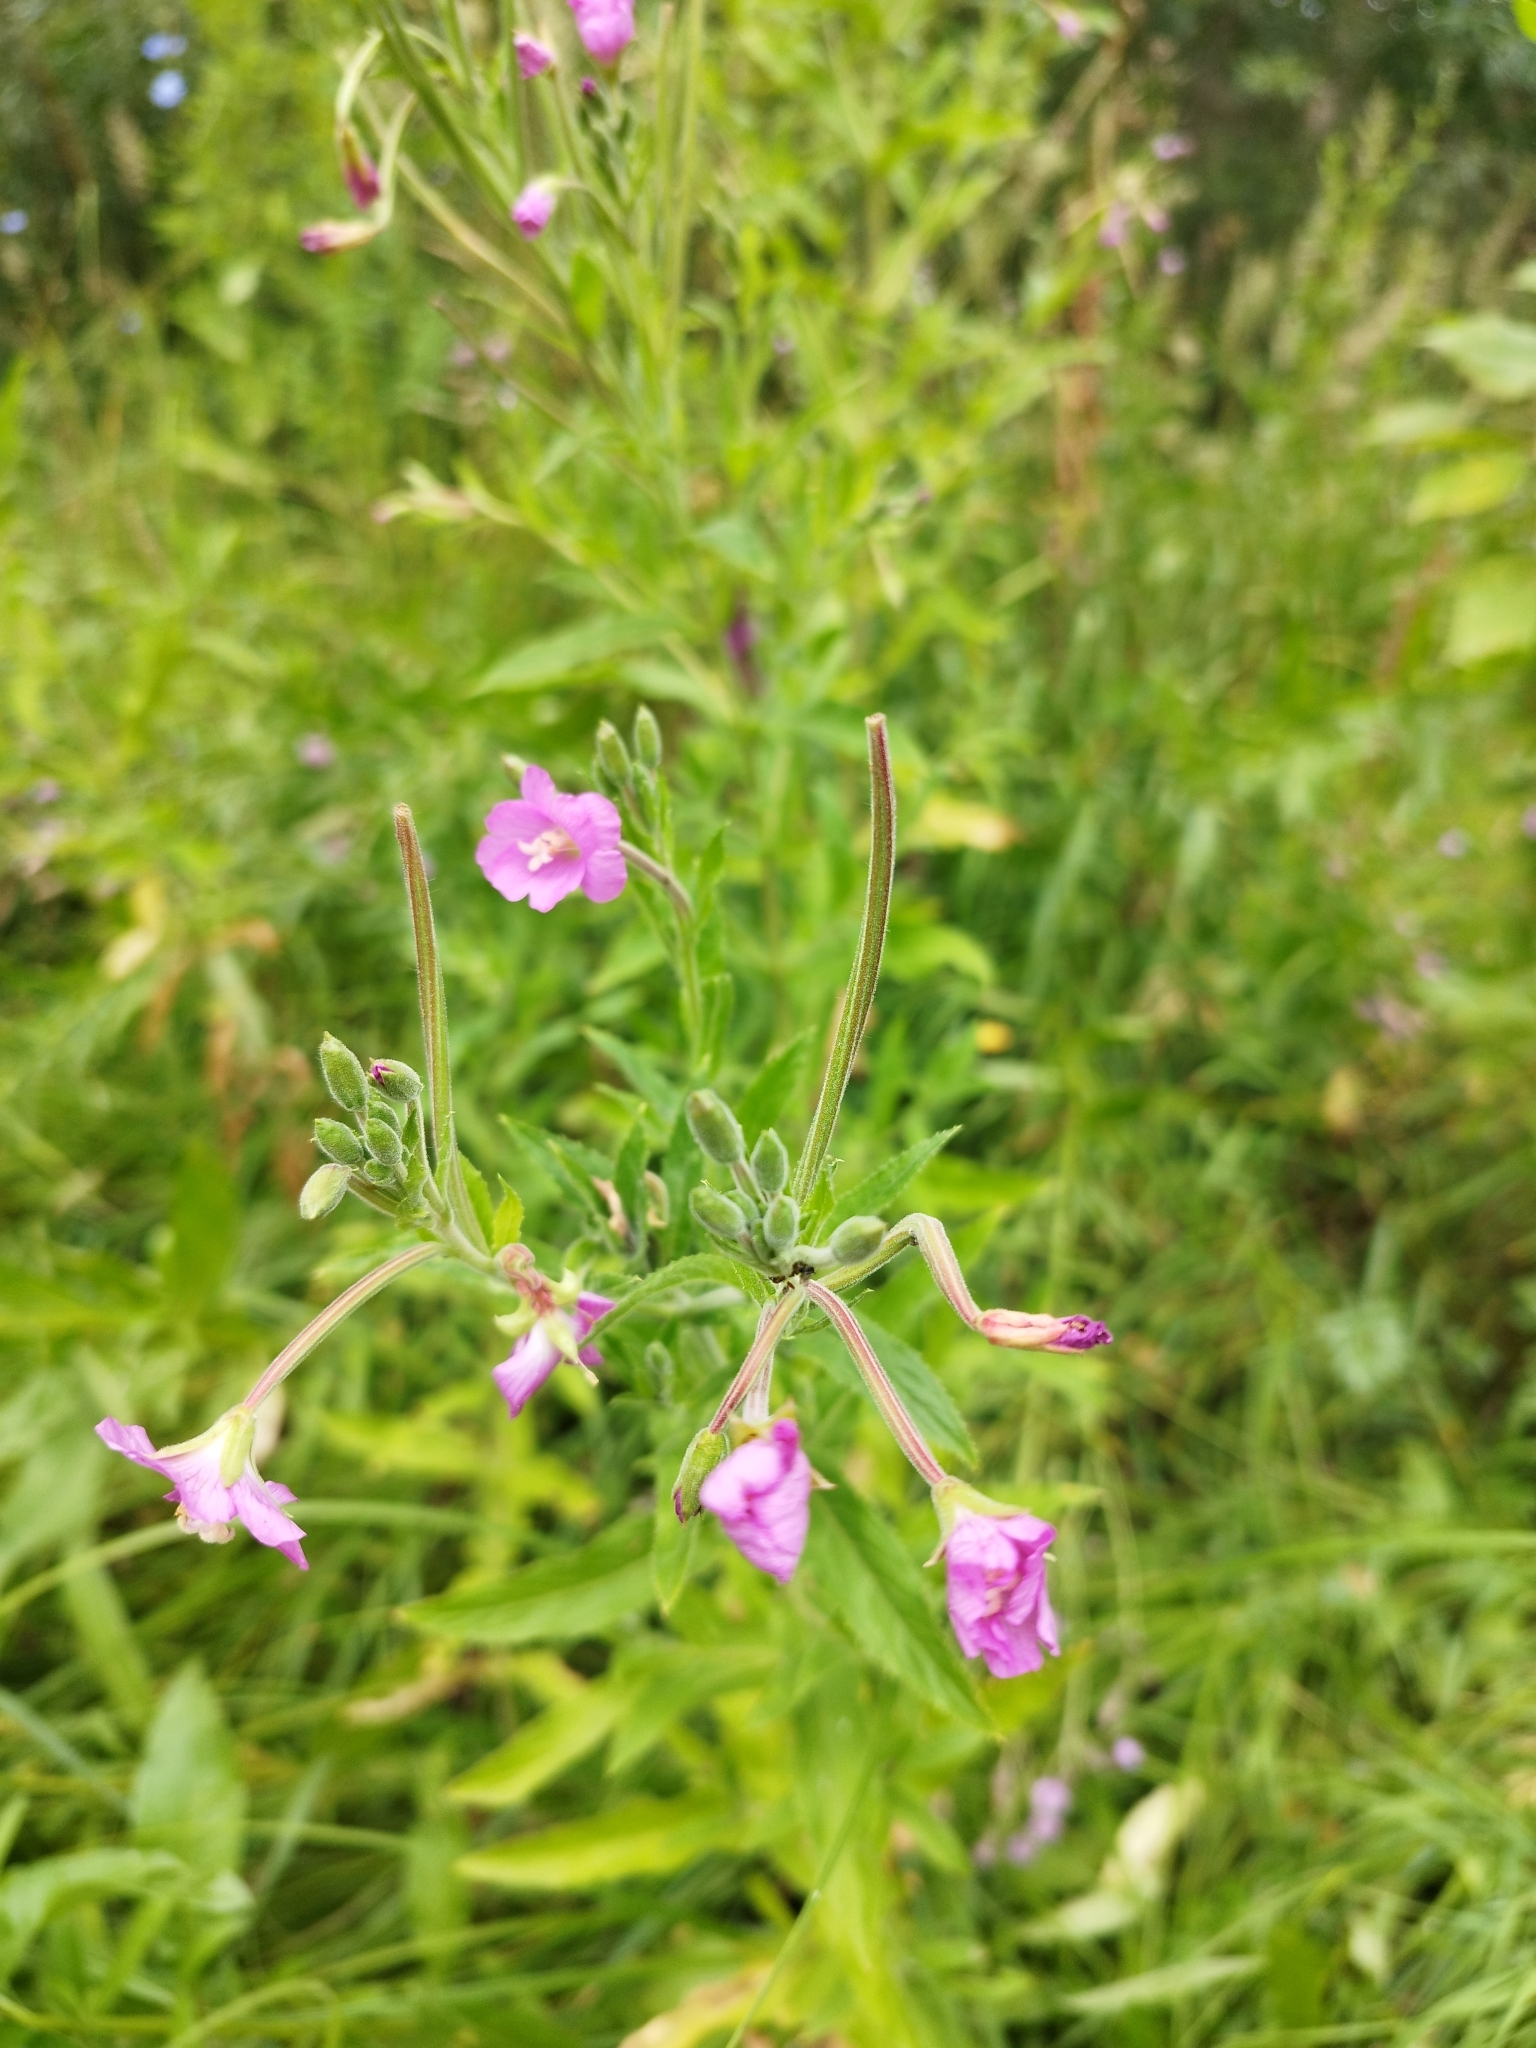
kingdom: Plantae
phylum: Tracheophyta
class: Magnoliopsida
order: Myrtales
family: Onagraceae
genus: Epilobium
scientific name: Epilobium hirsutum
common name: Great willowherb
